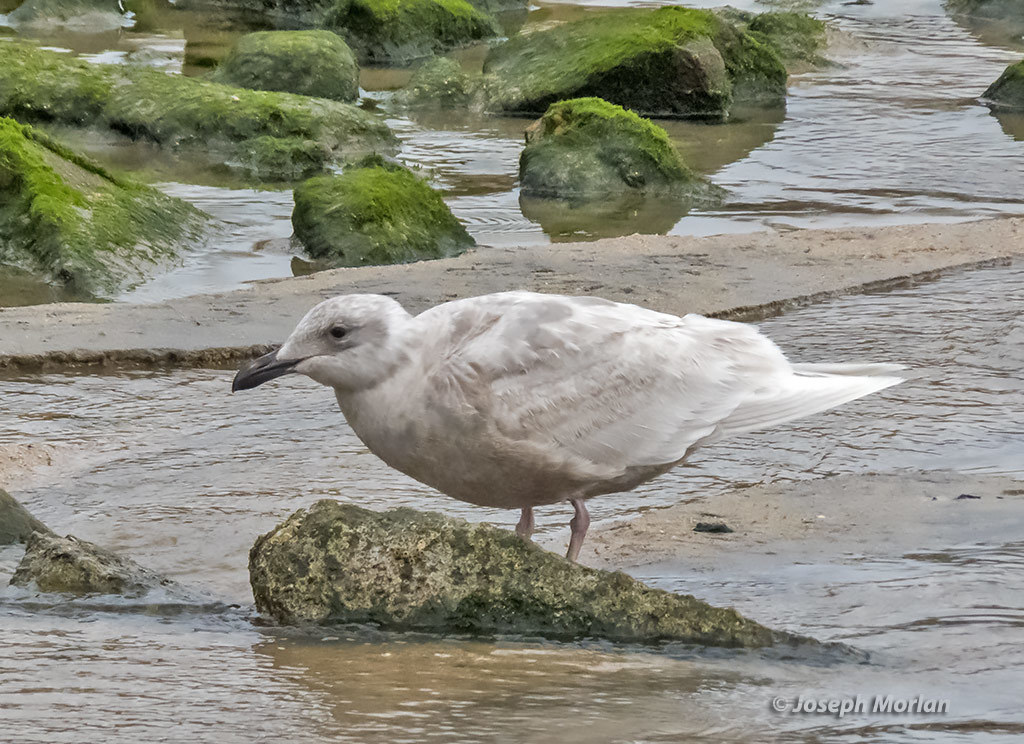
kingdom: Animalia
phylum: Chordata
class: Aves
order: Charadriiformes
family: Laridae
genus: Larus
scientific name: Larus glaucescens
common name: Glaucous-winged gull
